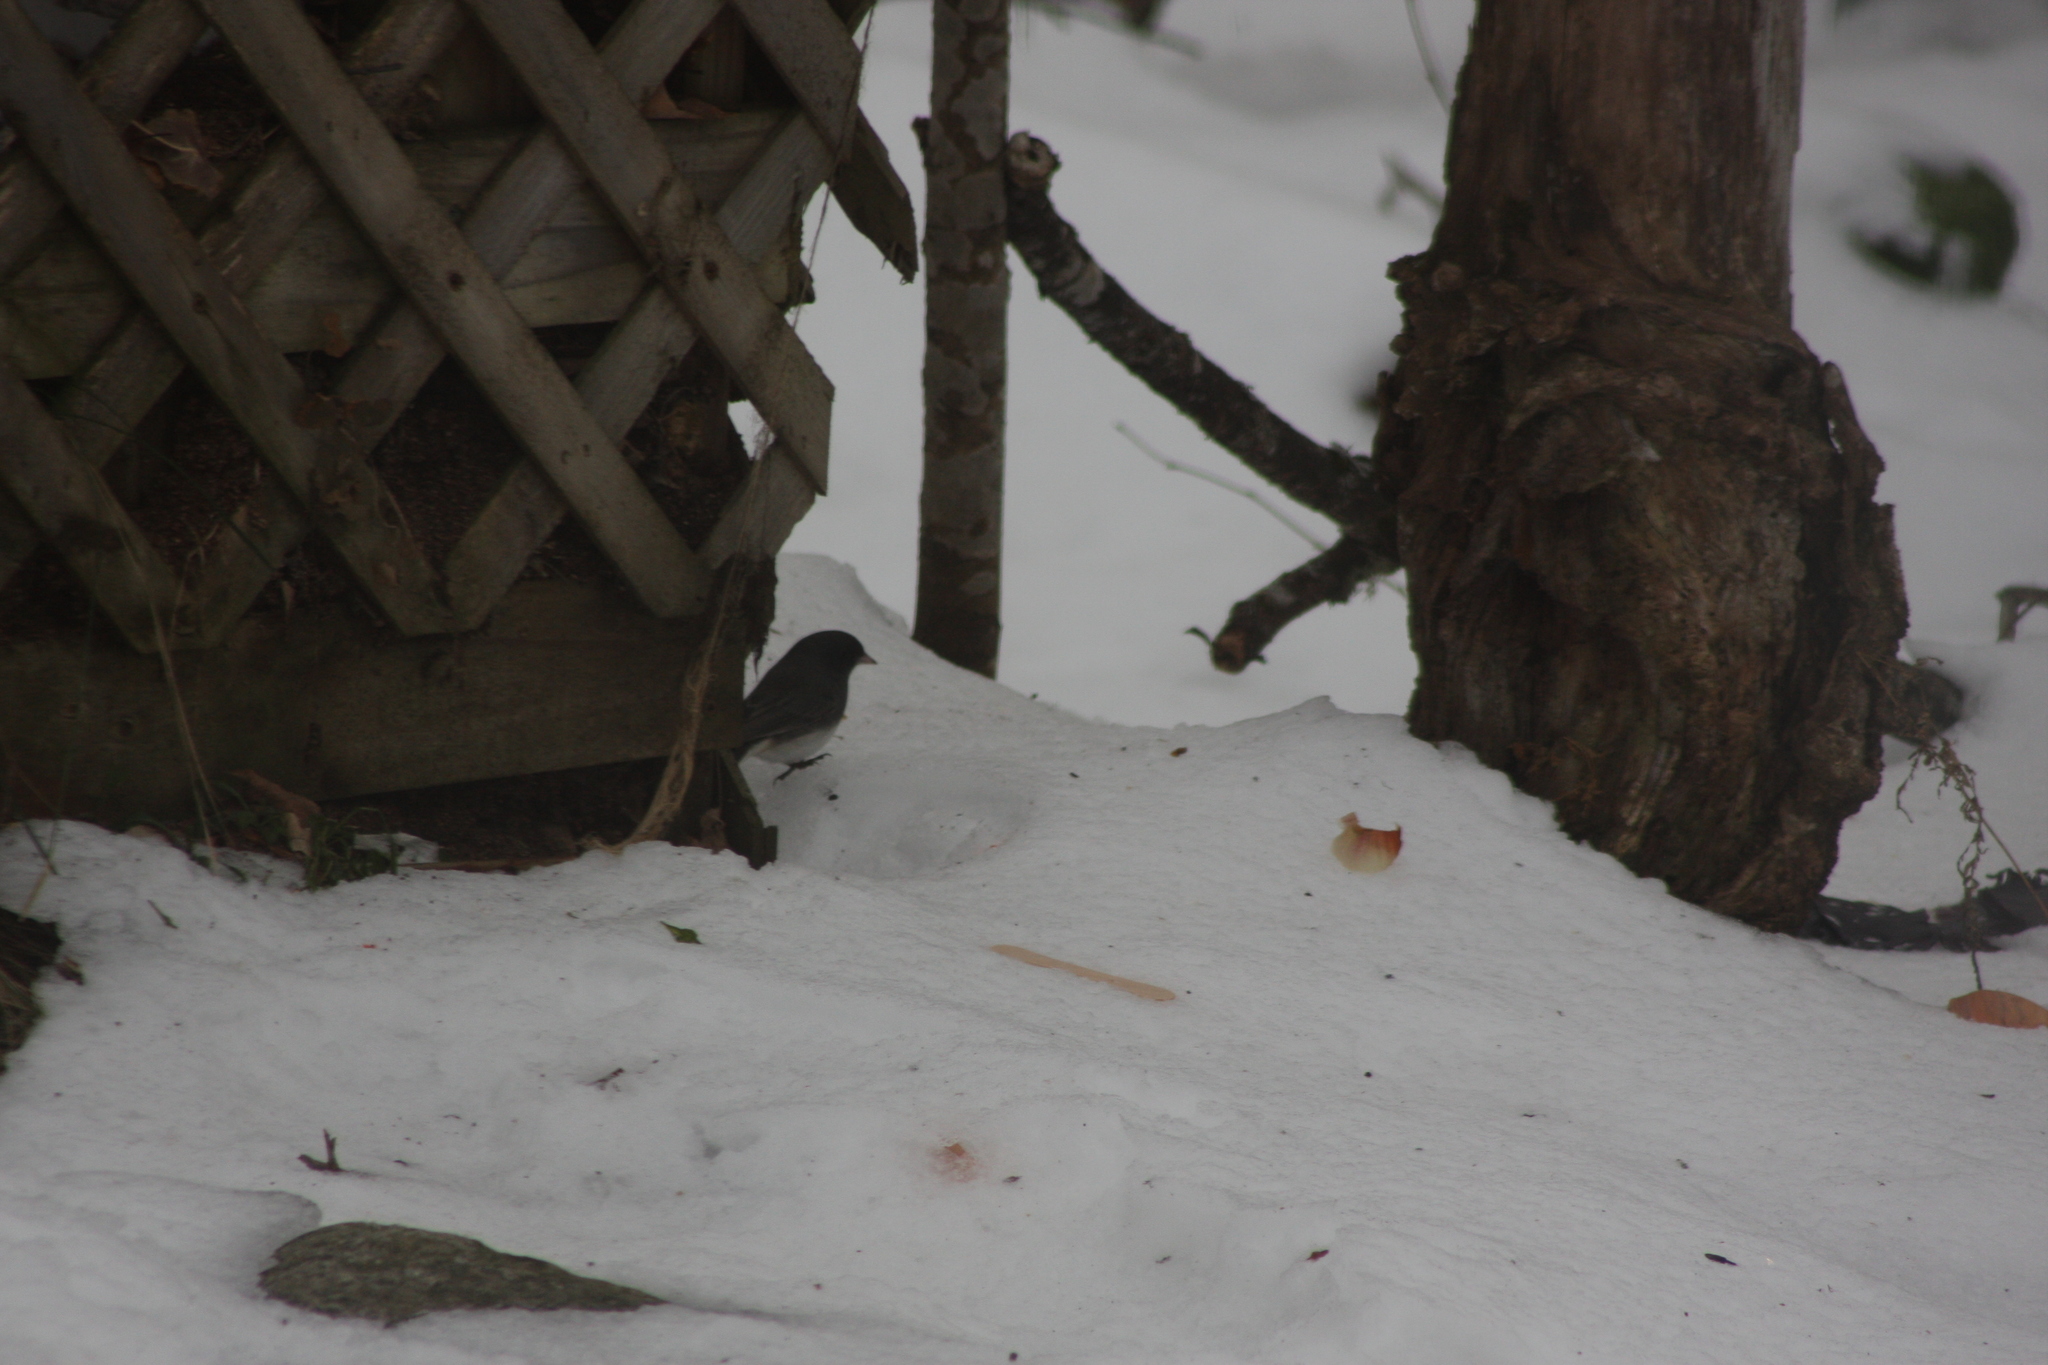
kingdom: Animalia
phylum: Chordata
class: Aves
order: Passeriformes
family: Passerellidae
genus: Junco
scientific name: Junco hyemalis
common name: Dark-eyed junco
